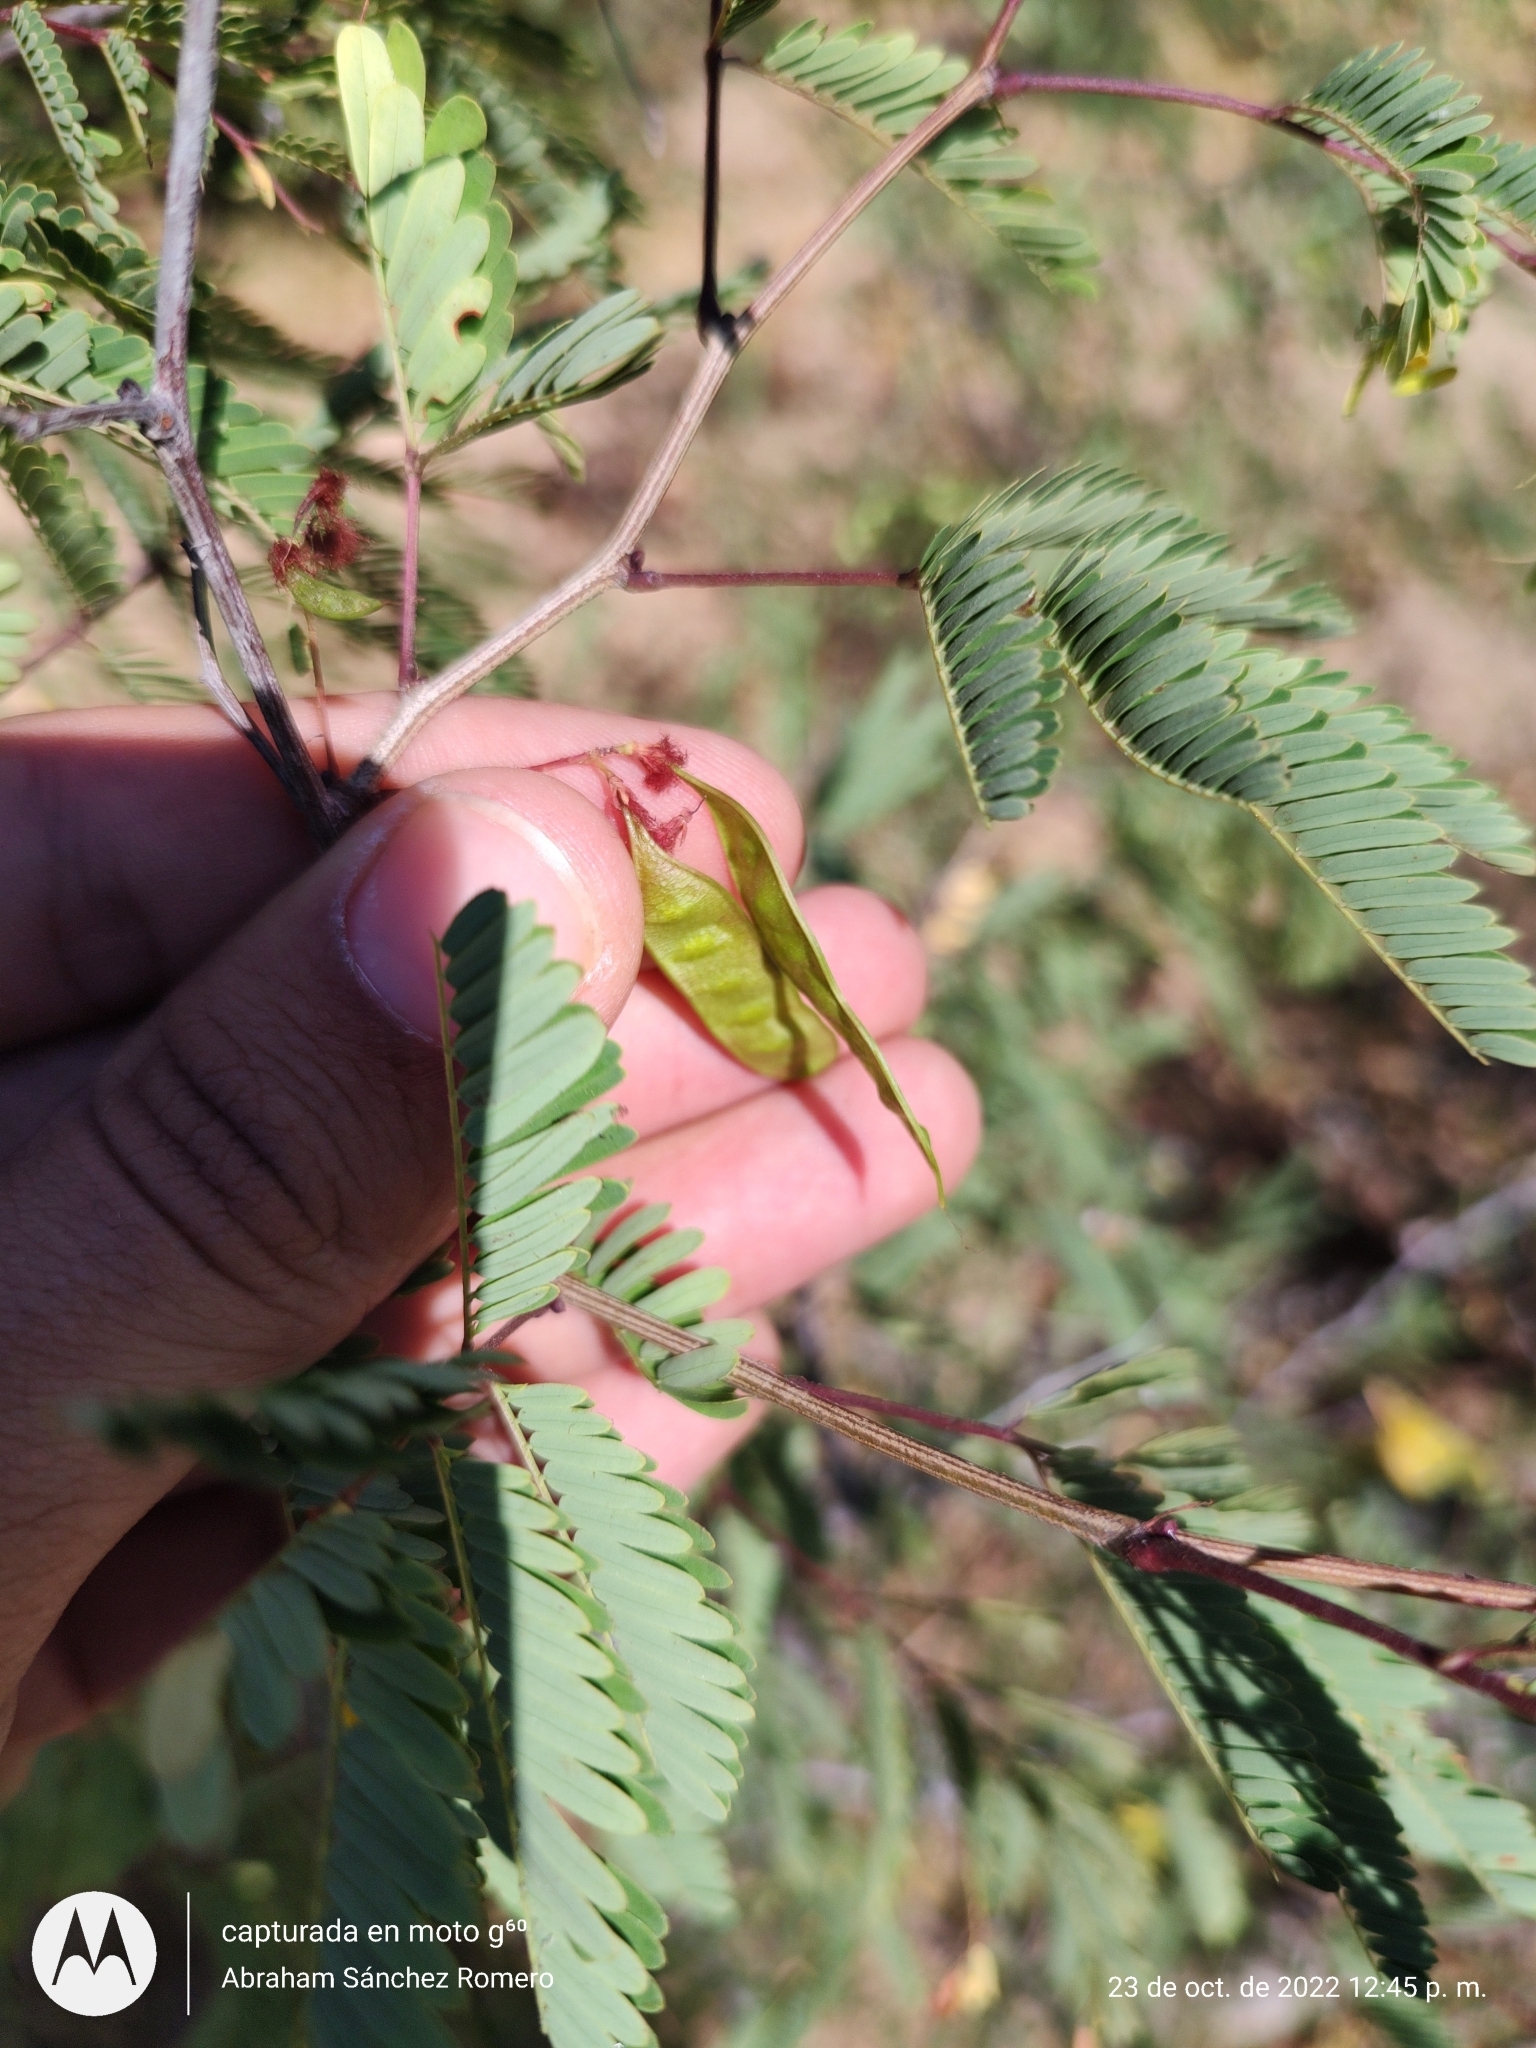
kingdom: Plantae
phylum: Tracheophyta
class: Magnoliopsida
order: Fabales
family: Fabaceae
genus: Acaciella
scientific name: Acaciella goldmanii
